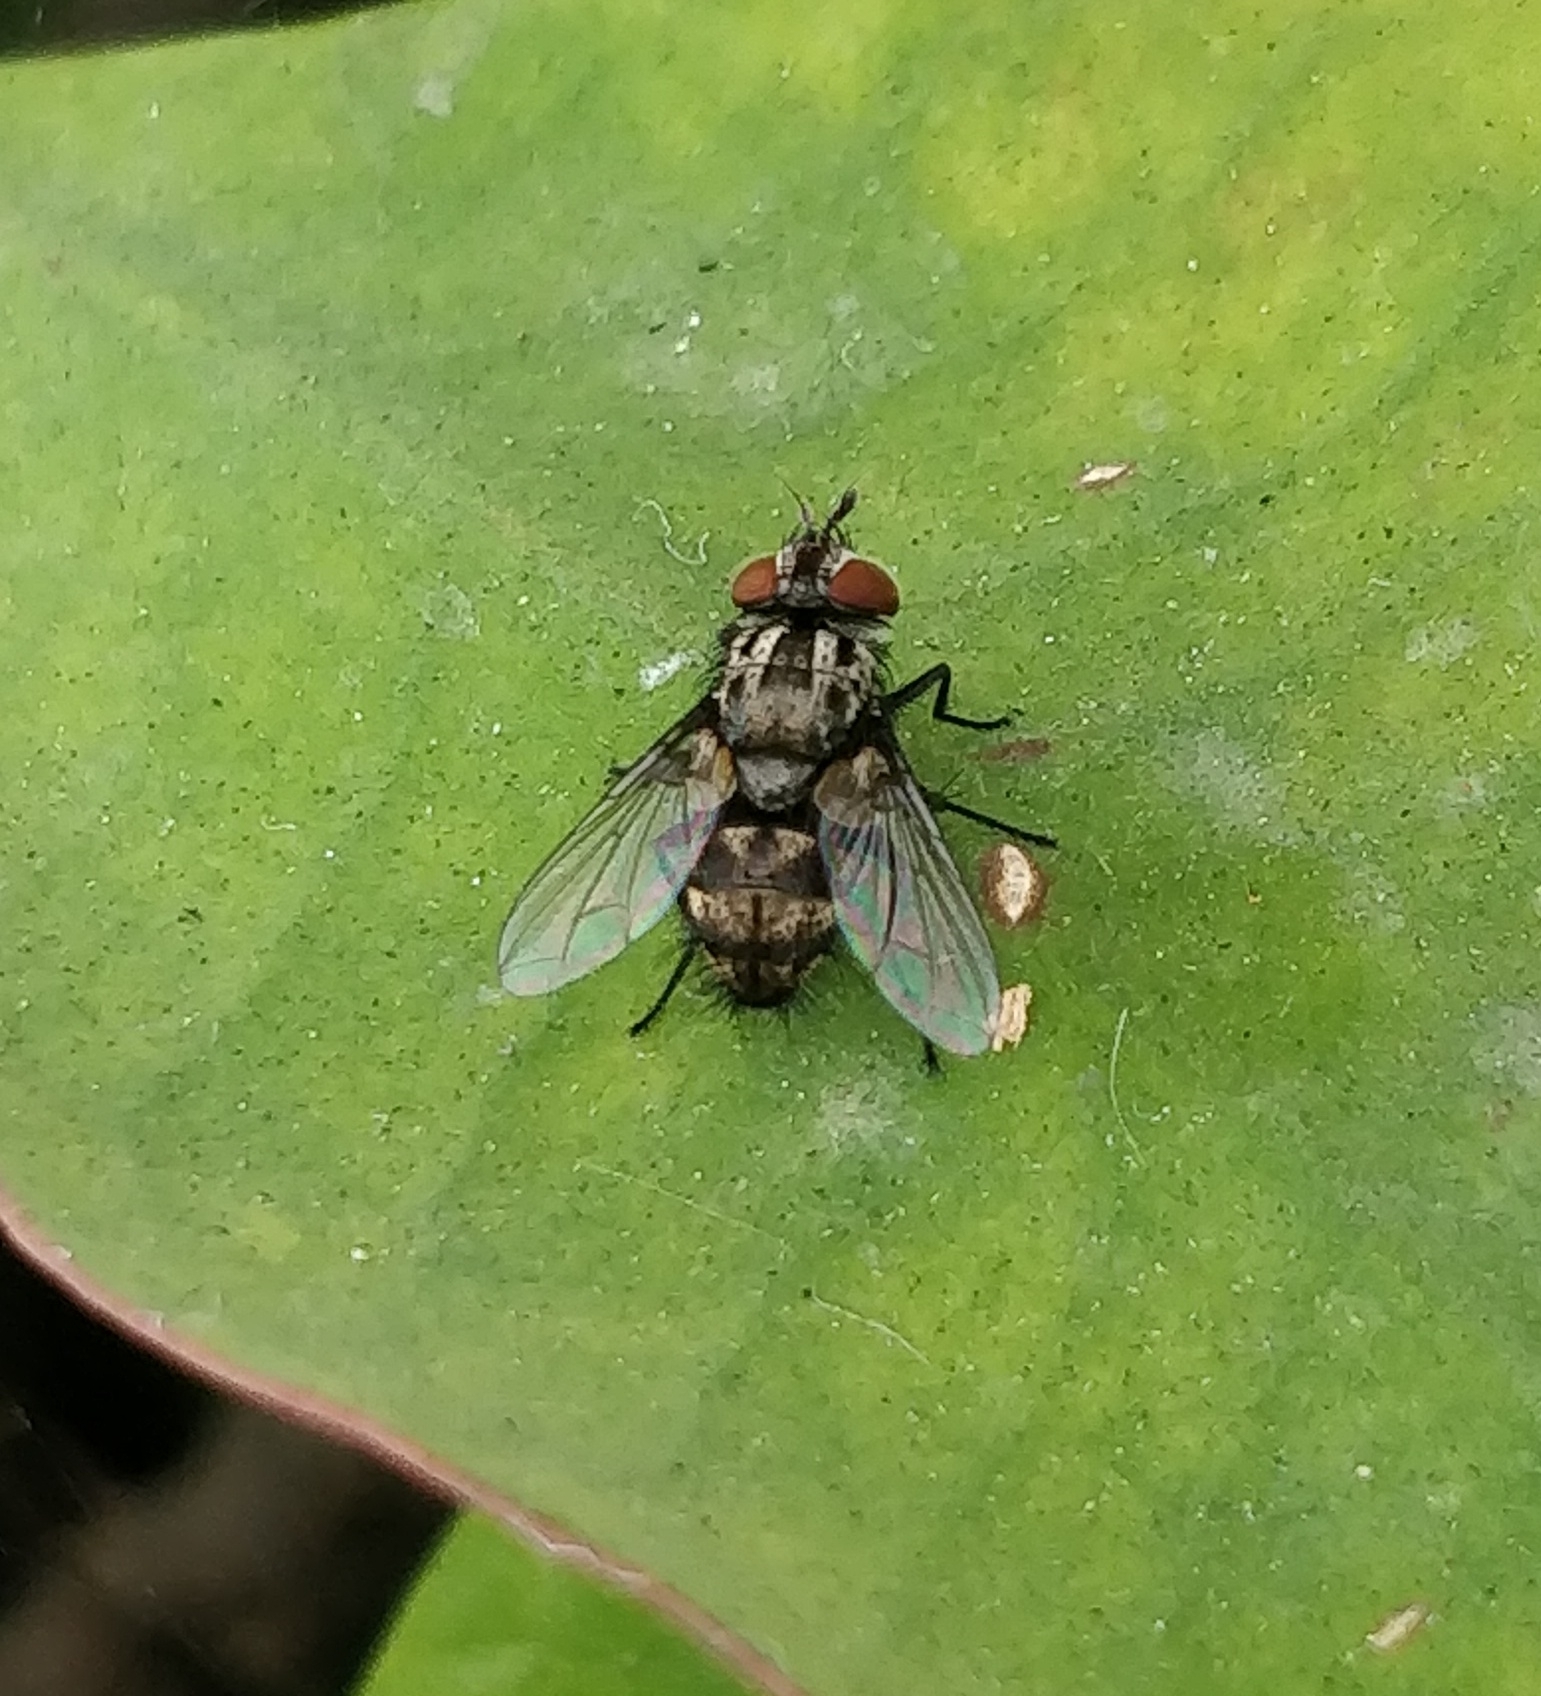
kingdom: Animalia
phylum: Arthropoda
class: Insecta
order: Diptera
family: Tachinidae
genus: Nemorilla
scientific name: Nemorilla maculosa
